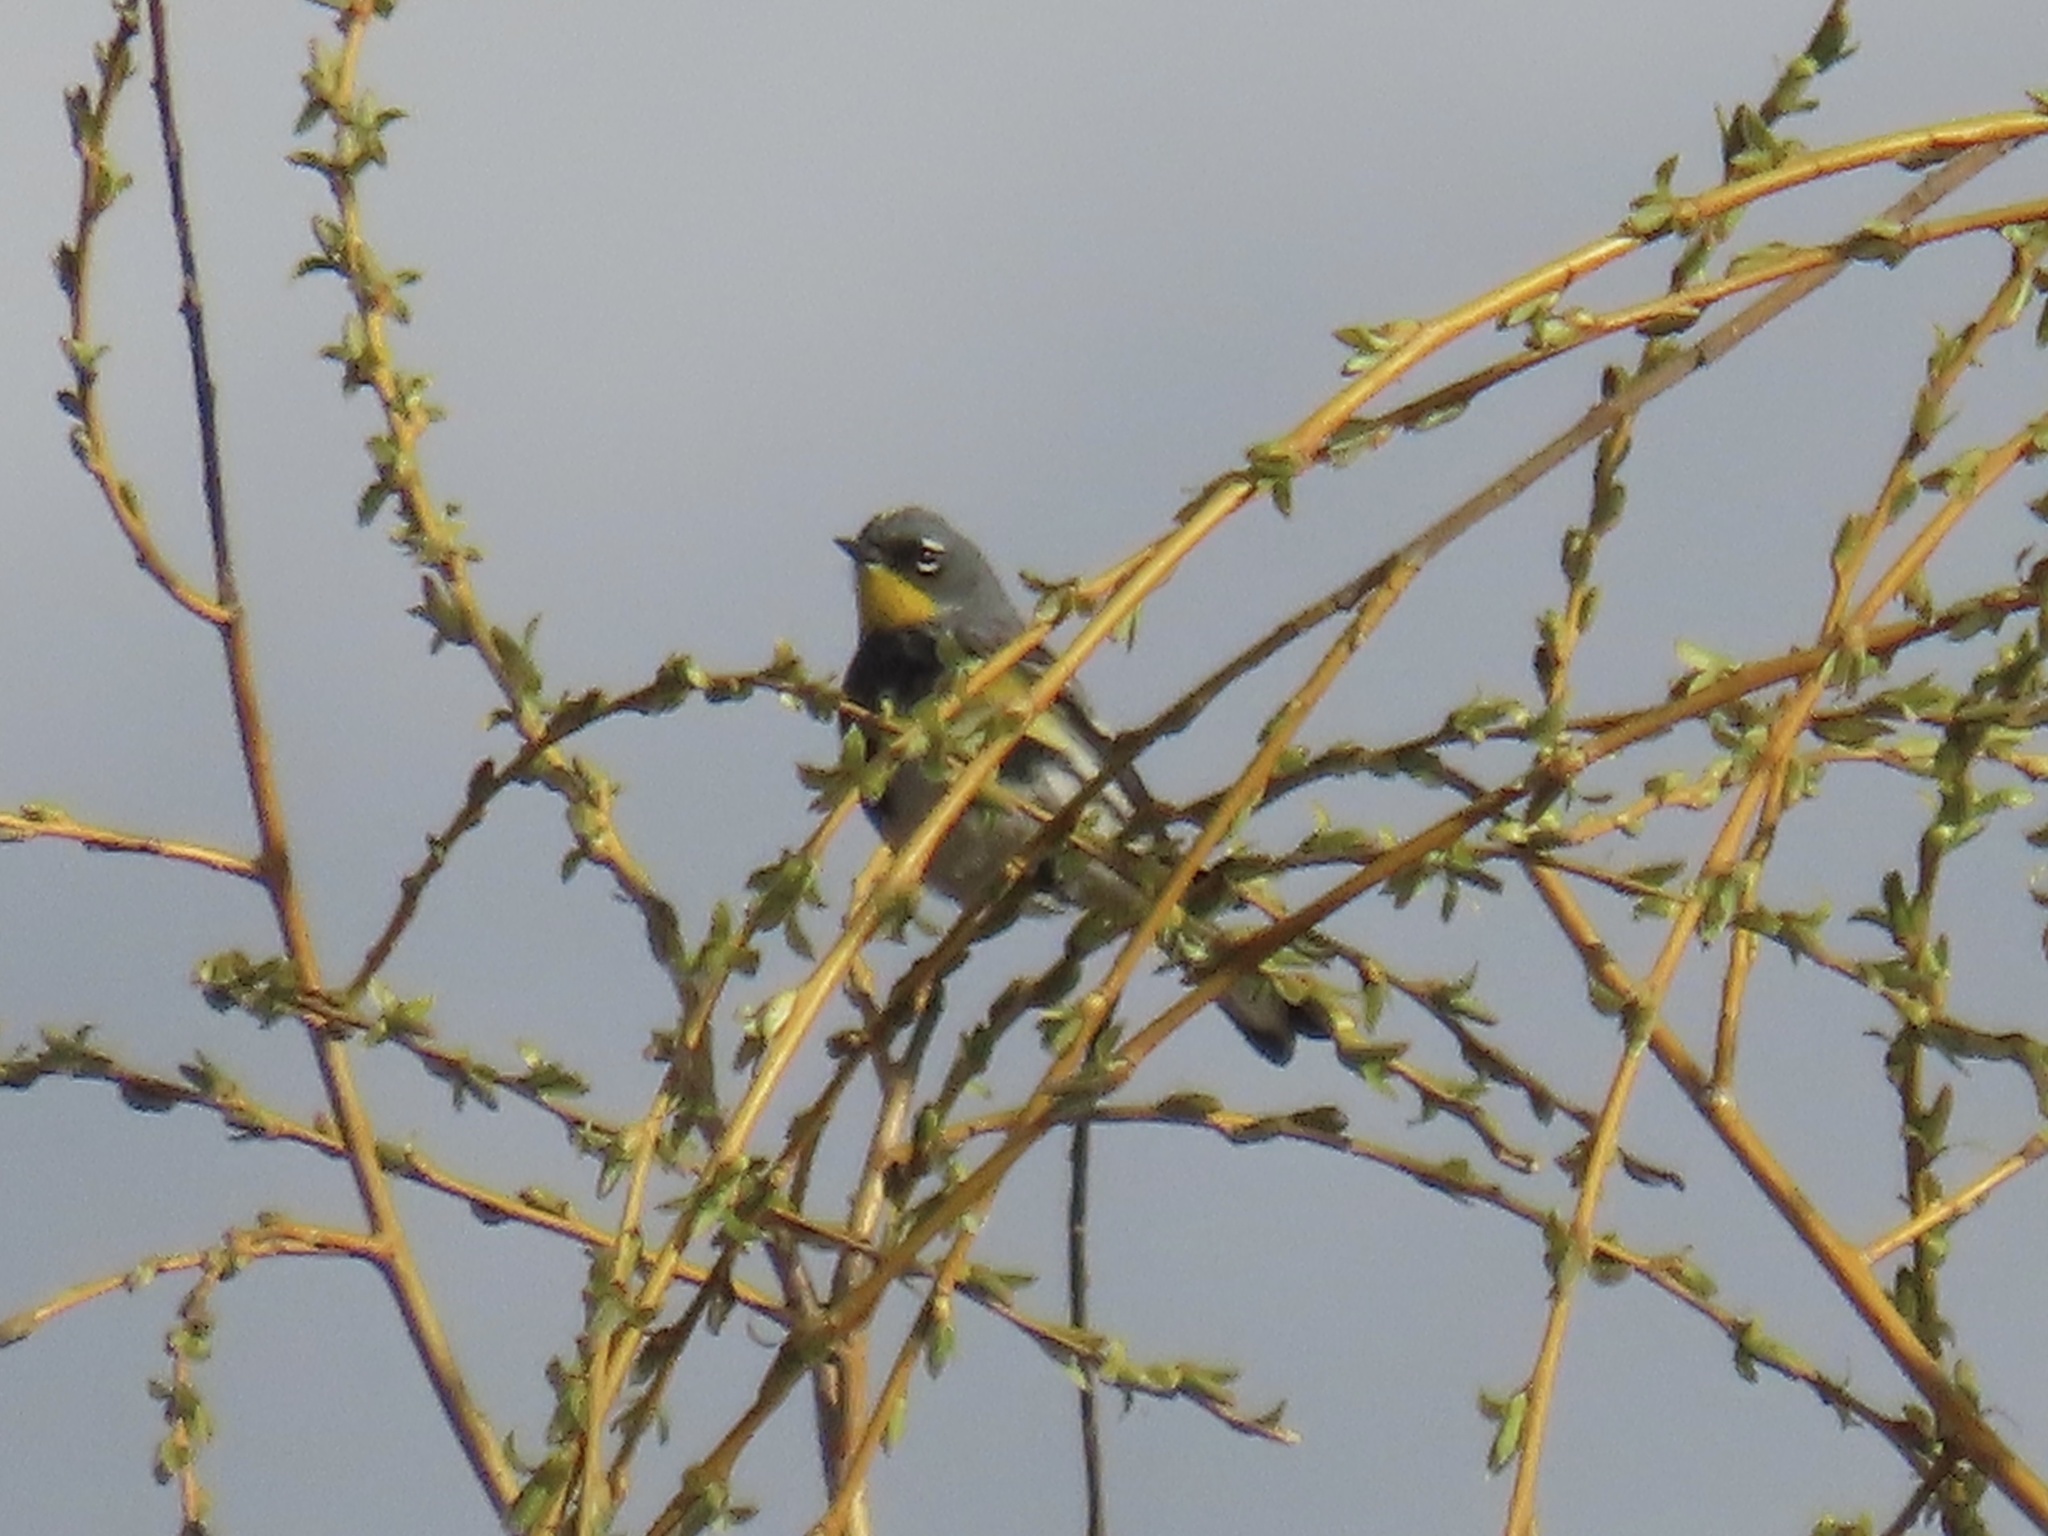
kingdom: Animalia
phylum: Chordata
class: Aves
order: Passeriformes
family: Parulidae
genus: Setophaga
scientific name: Setophaga coronata
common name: Myrtle warbler
